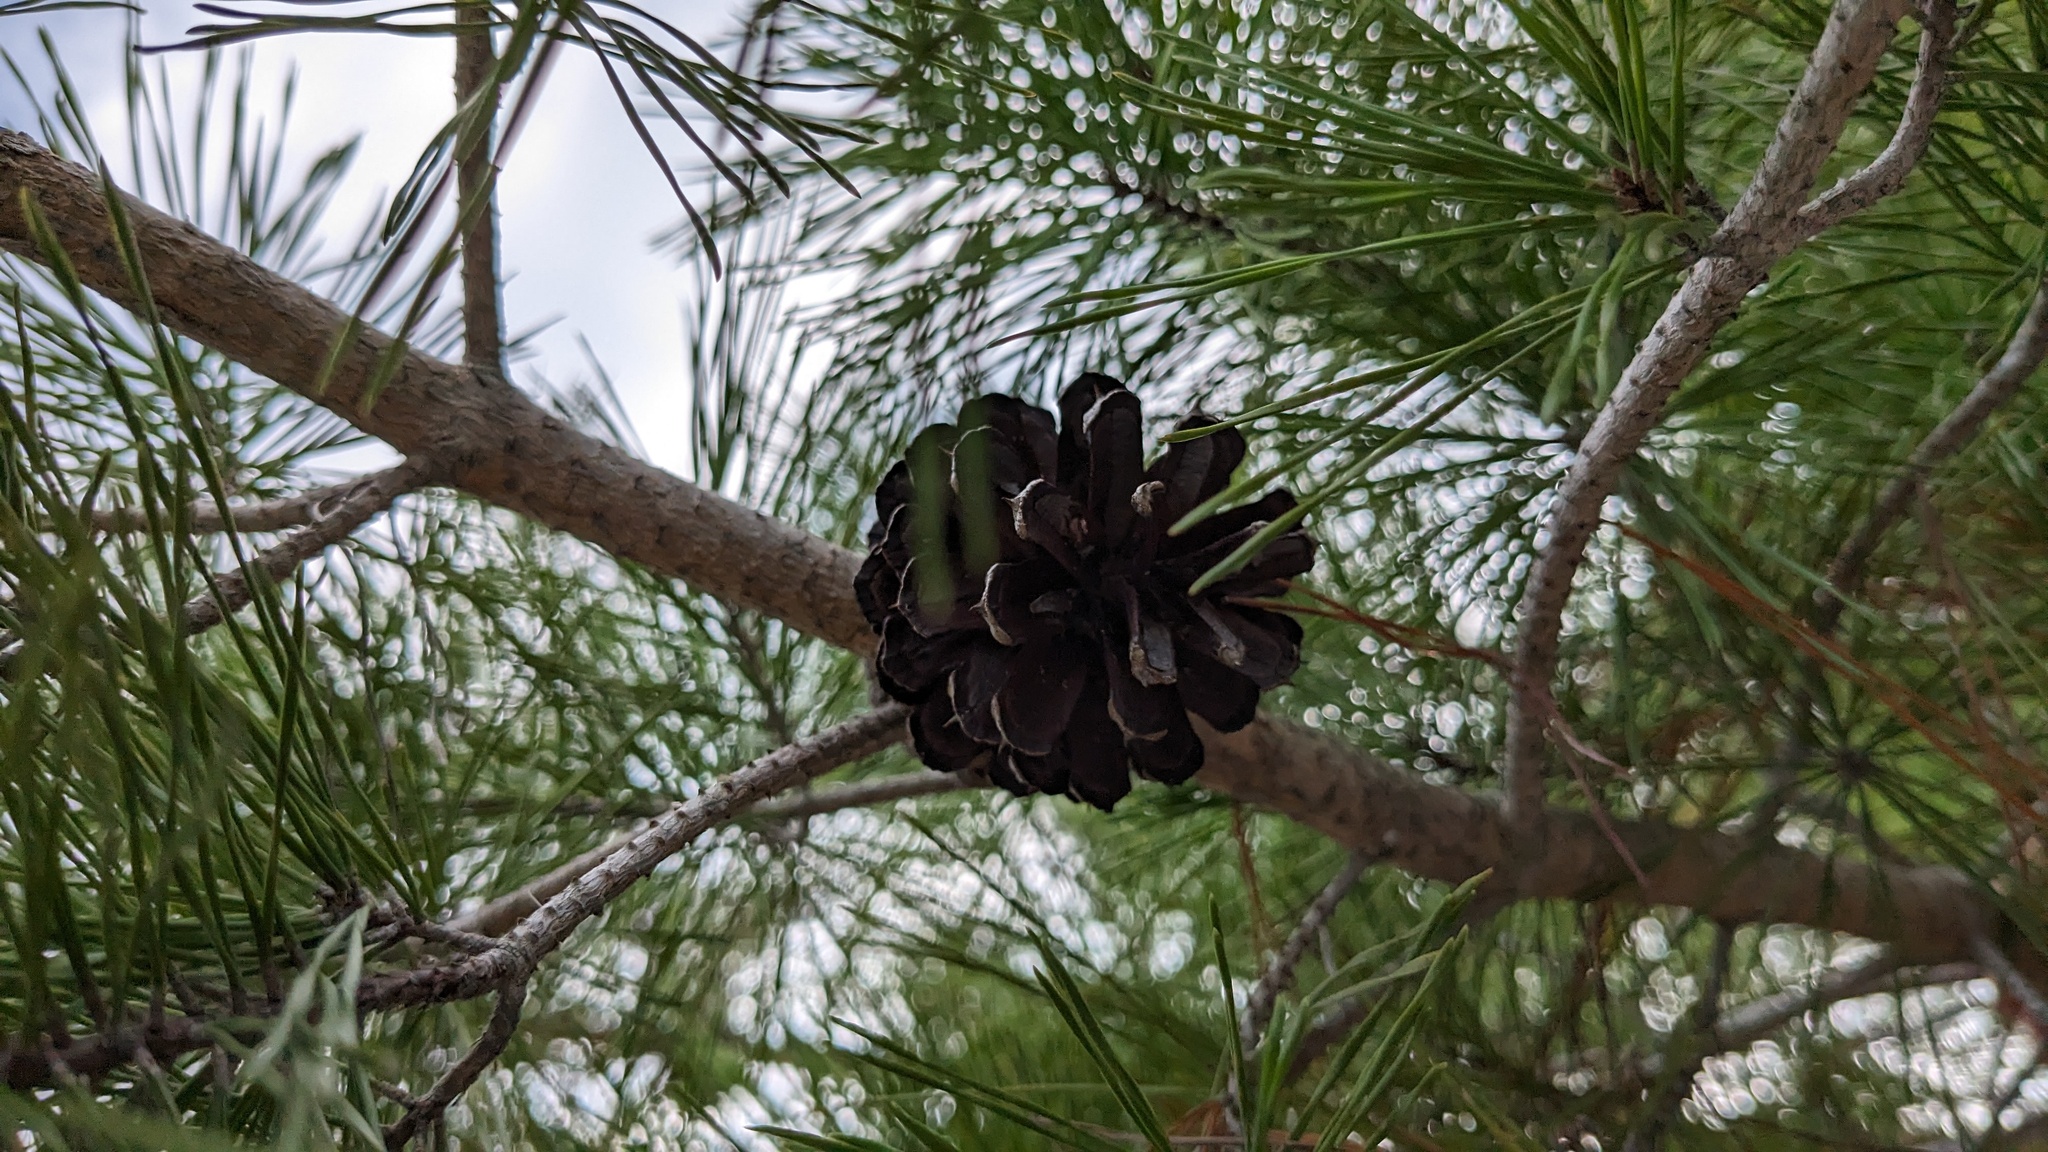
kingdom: Plantae
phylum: Tracheophyta
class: Pinopsida
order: Pinales
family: Pinaceae
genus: Pinus
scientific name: Pinus clausa
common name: Sand pine
